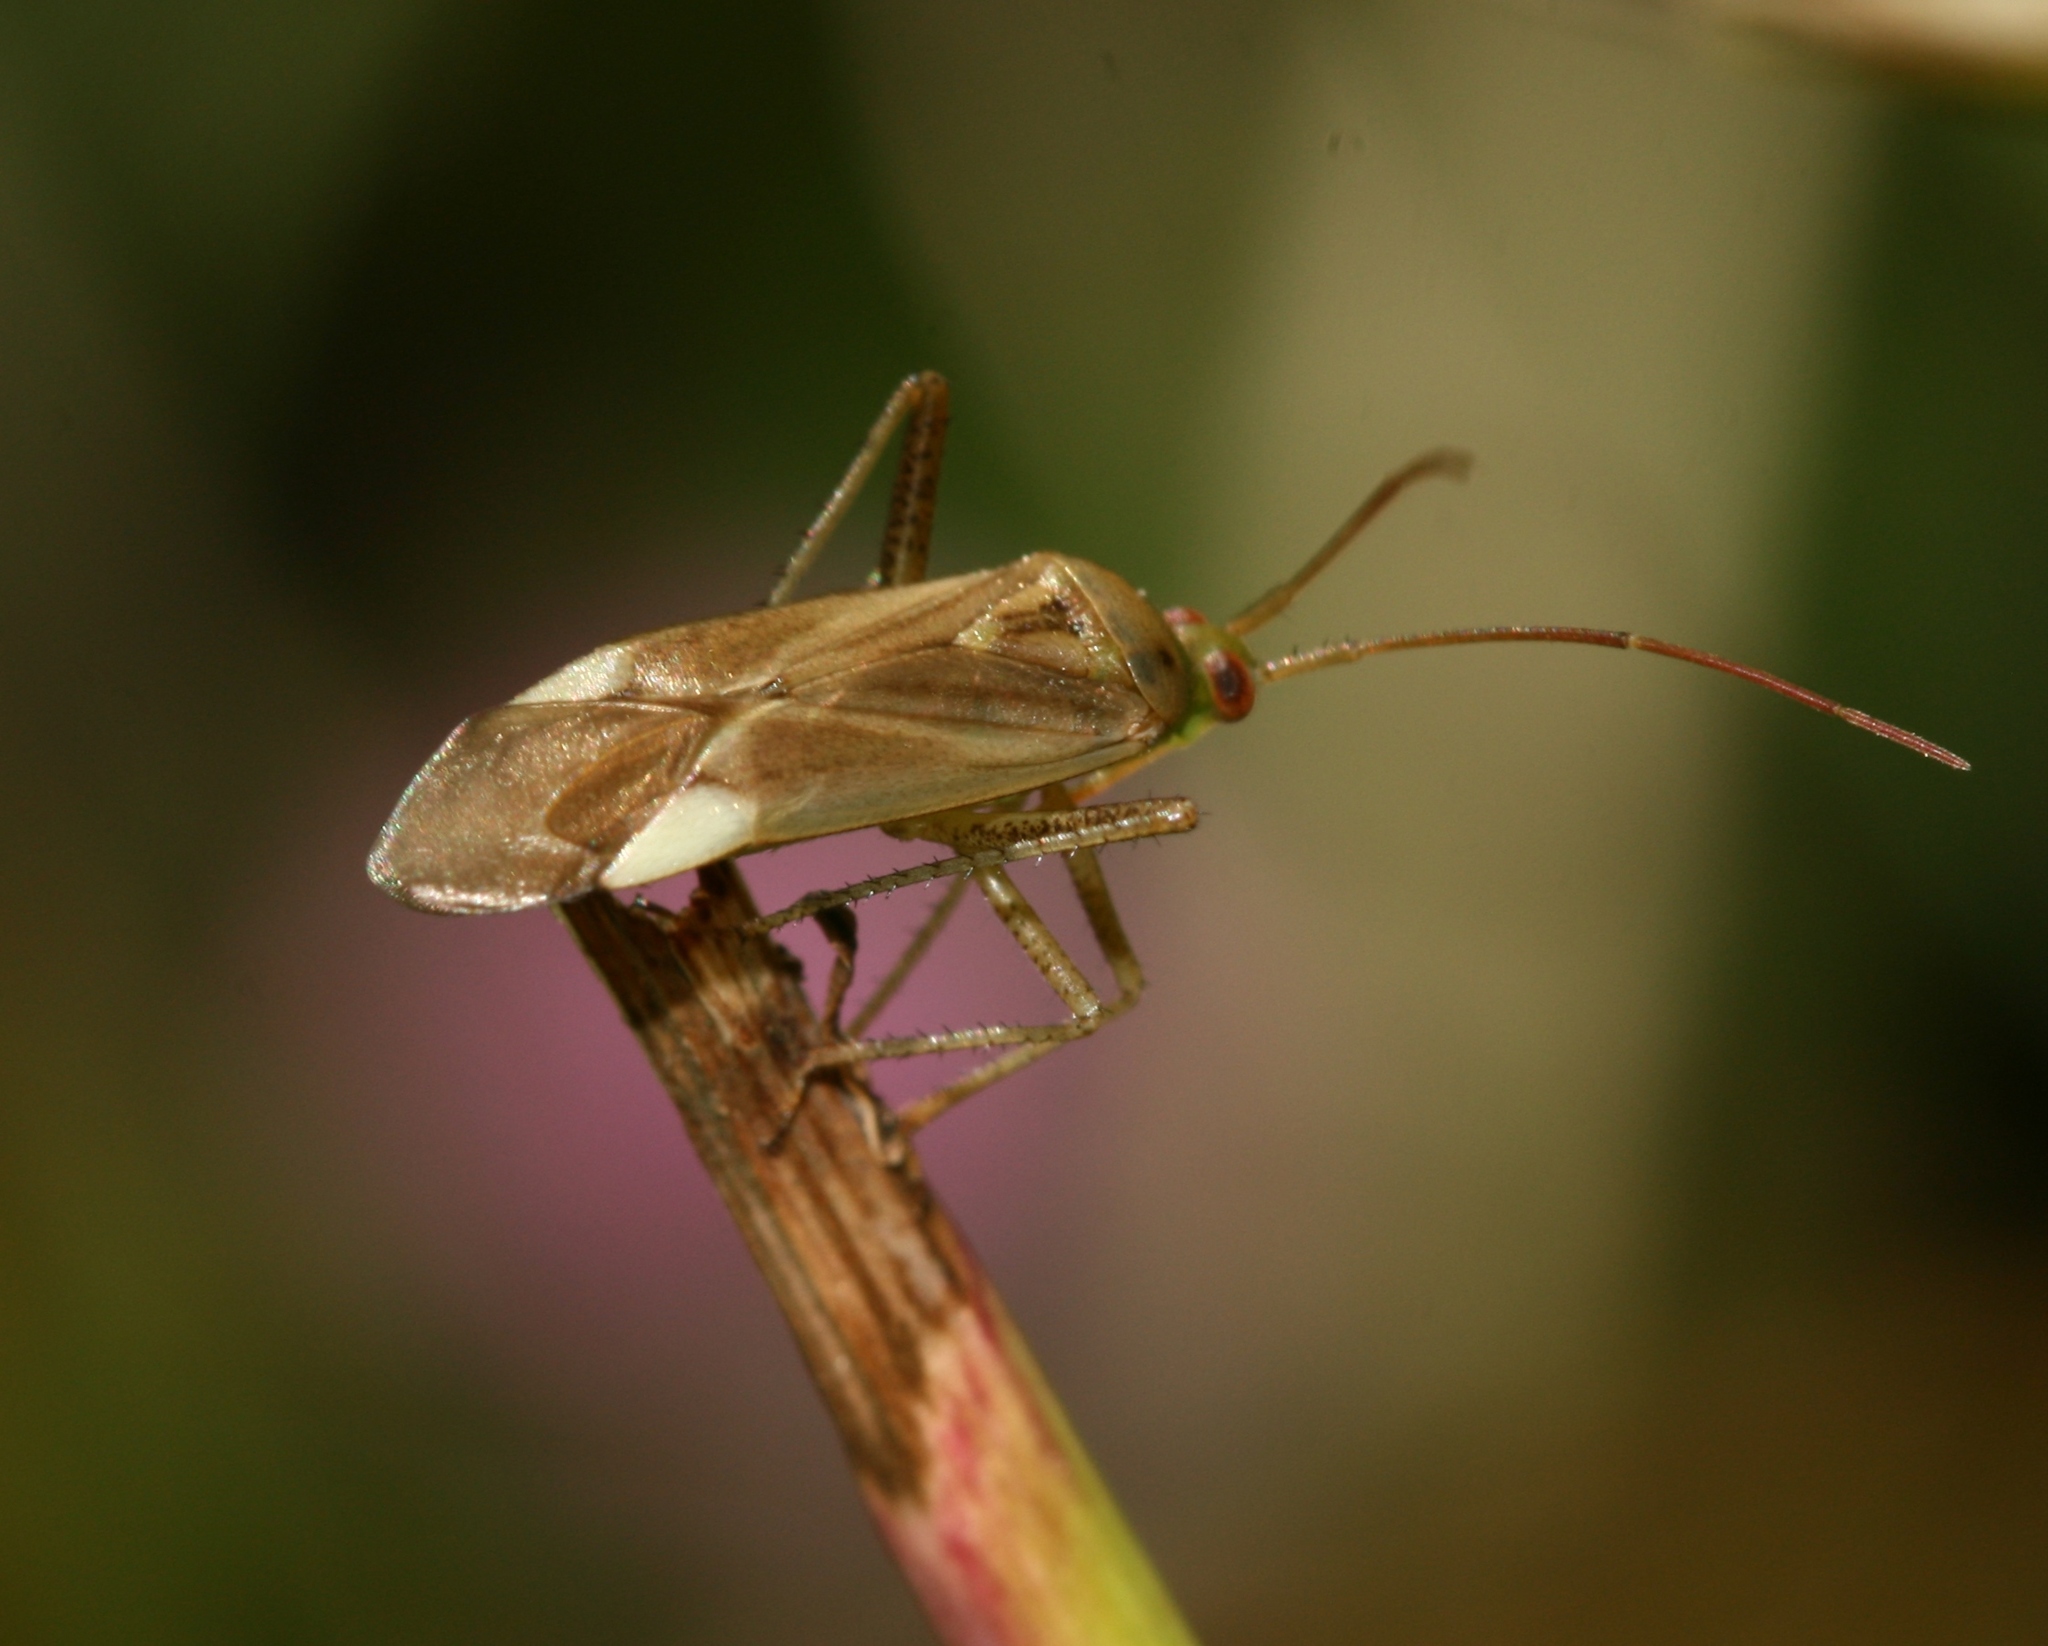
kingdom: Animalia
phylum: Arthropoda
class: Insecta
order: Hemiptera
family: Miridae
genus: Adelphocoris
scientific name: Adelphocoris lineolatus
